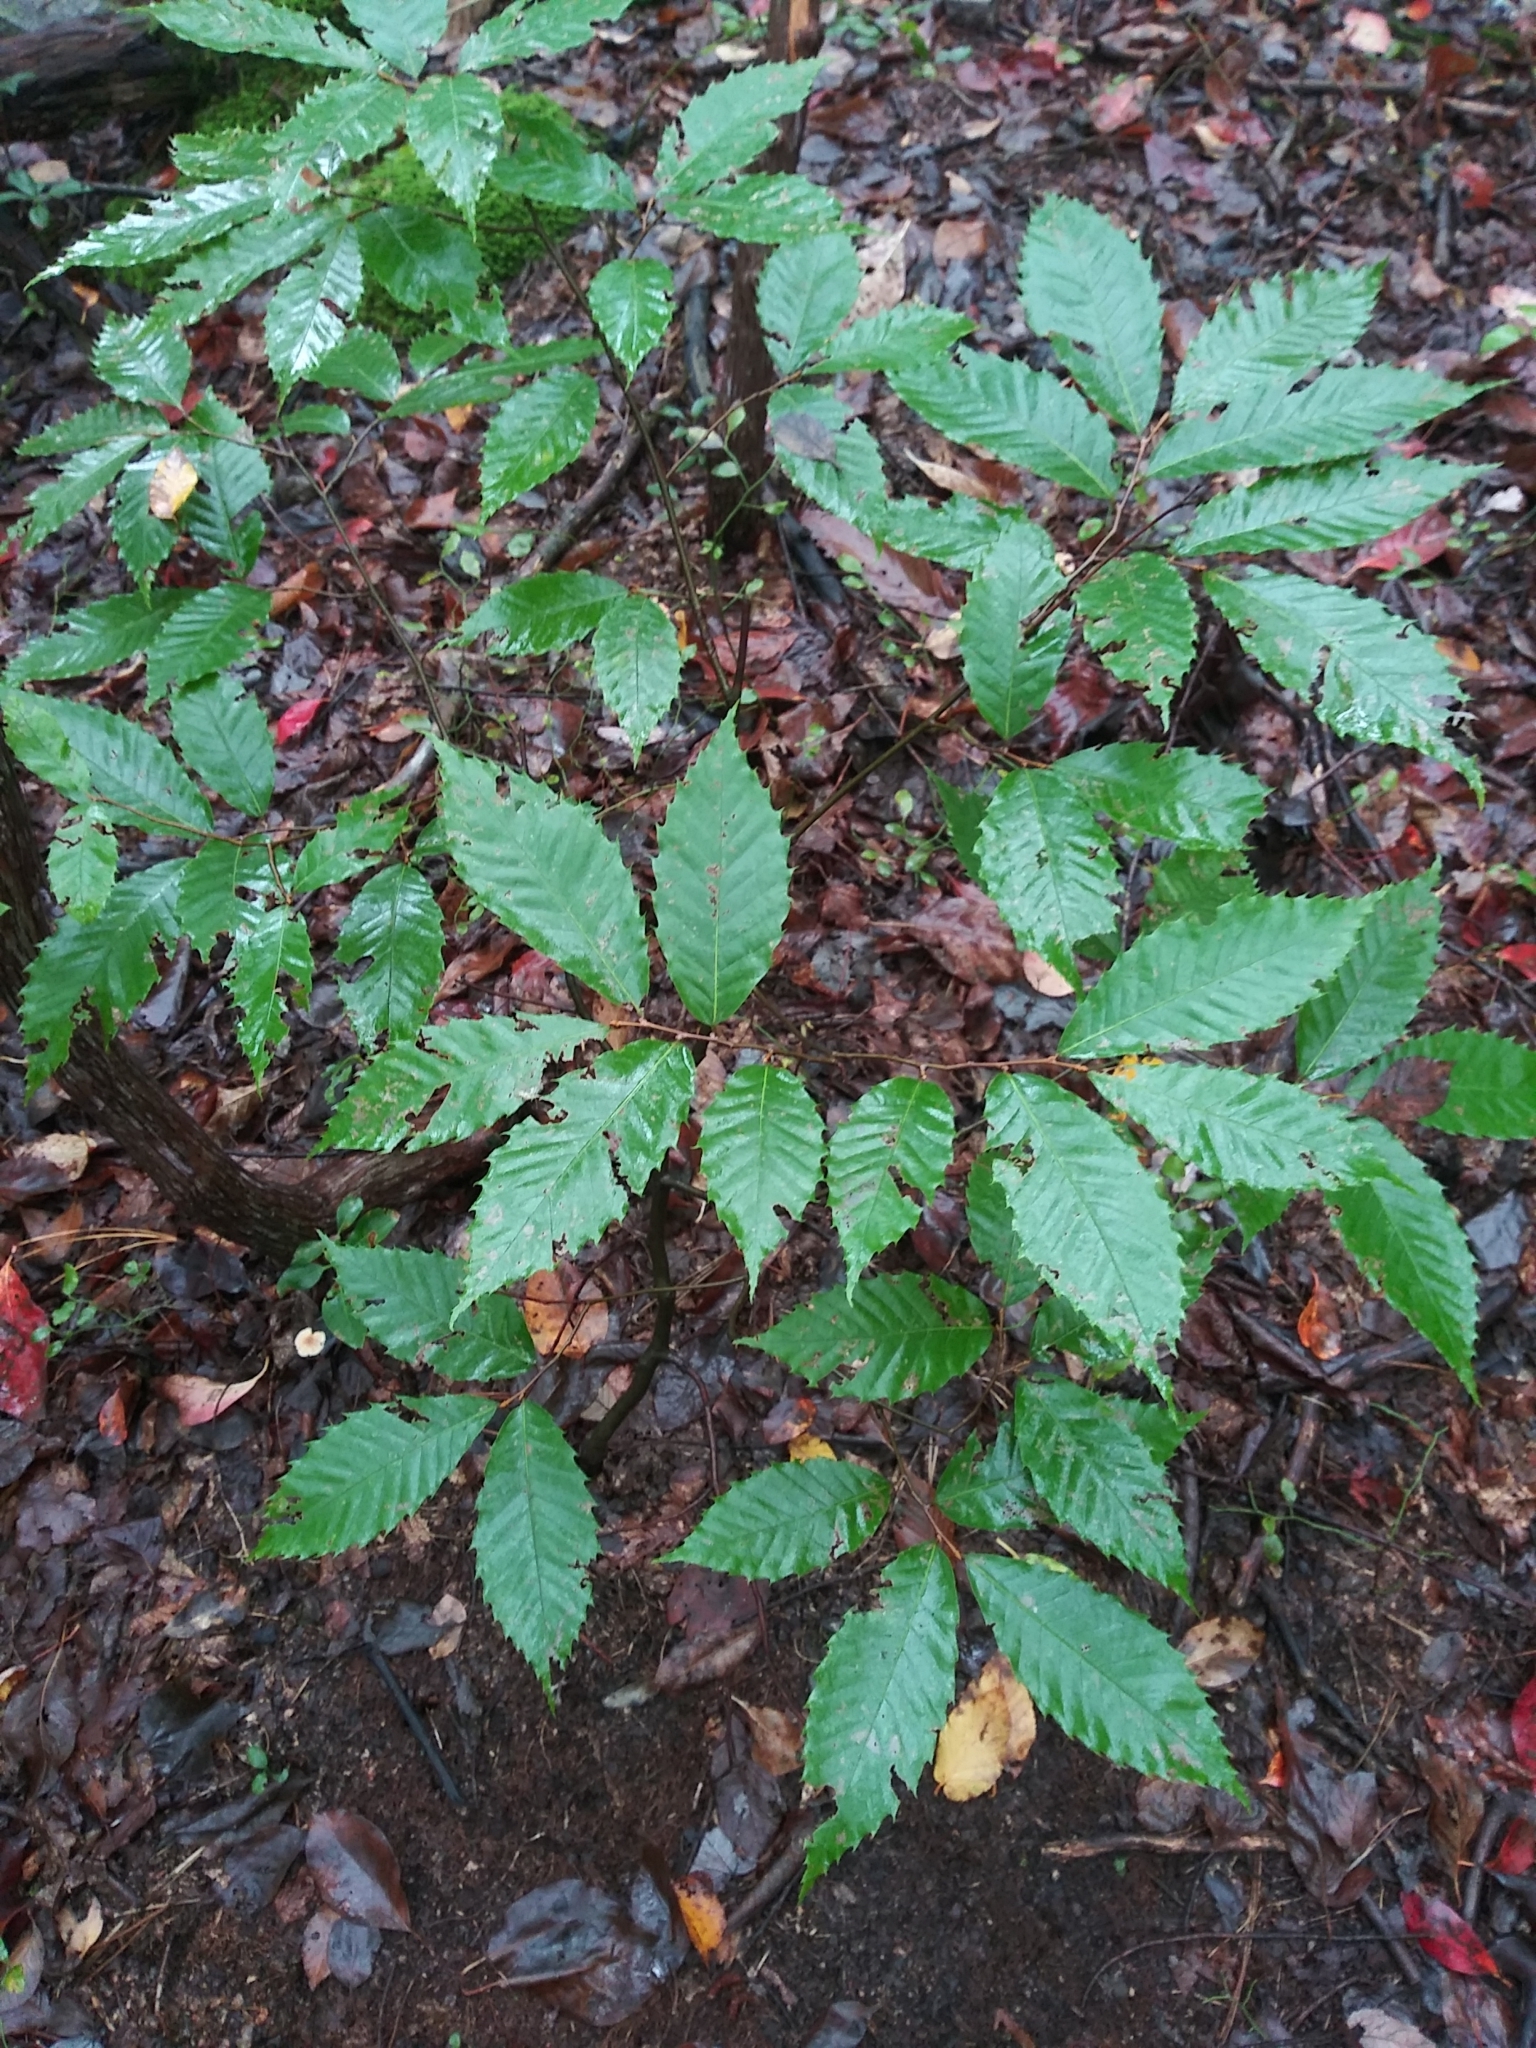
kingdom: Plantae
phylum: Tracheophyta
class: Magnoliopsida
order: Fagales
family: Fagaceae
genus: Castanea
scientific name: Castanea dentata
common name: American chestnut
